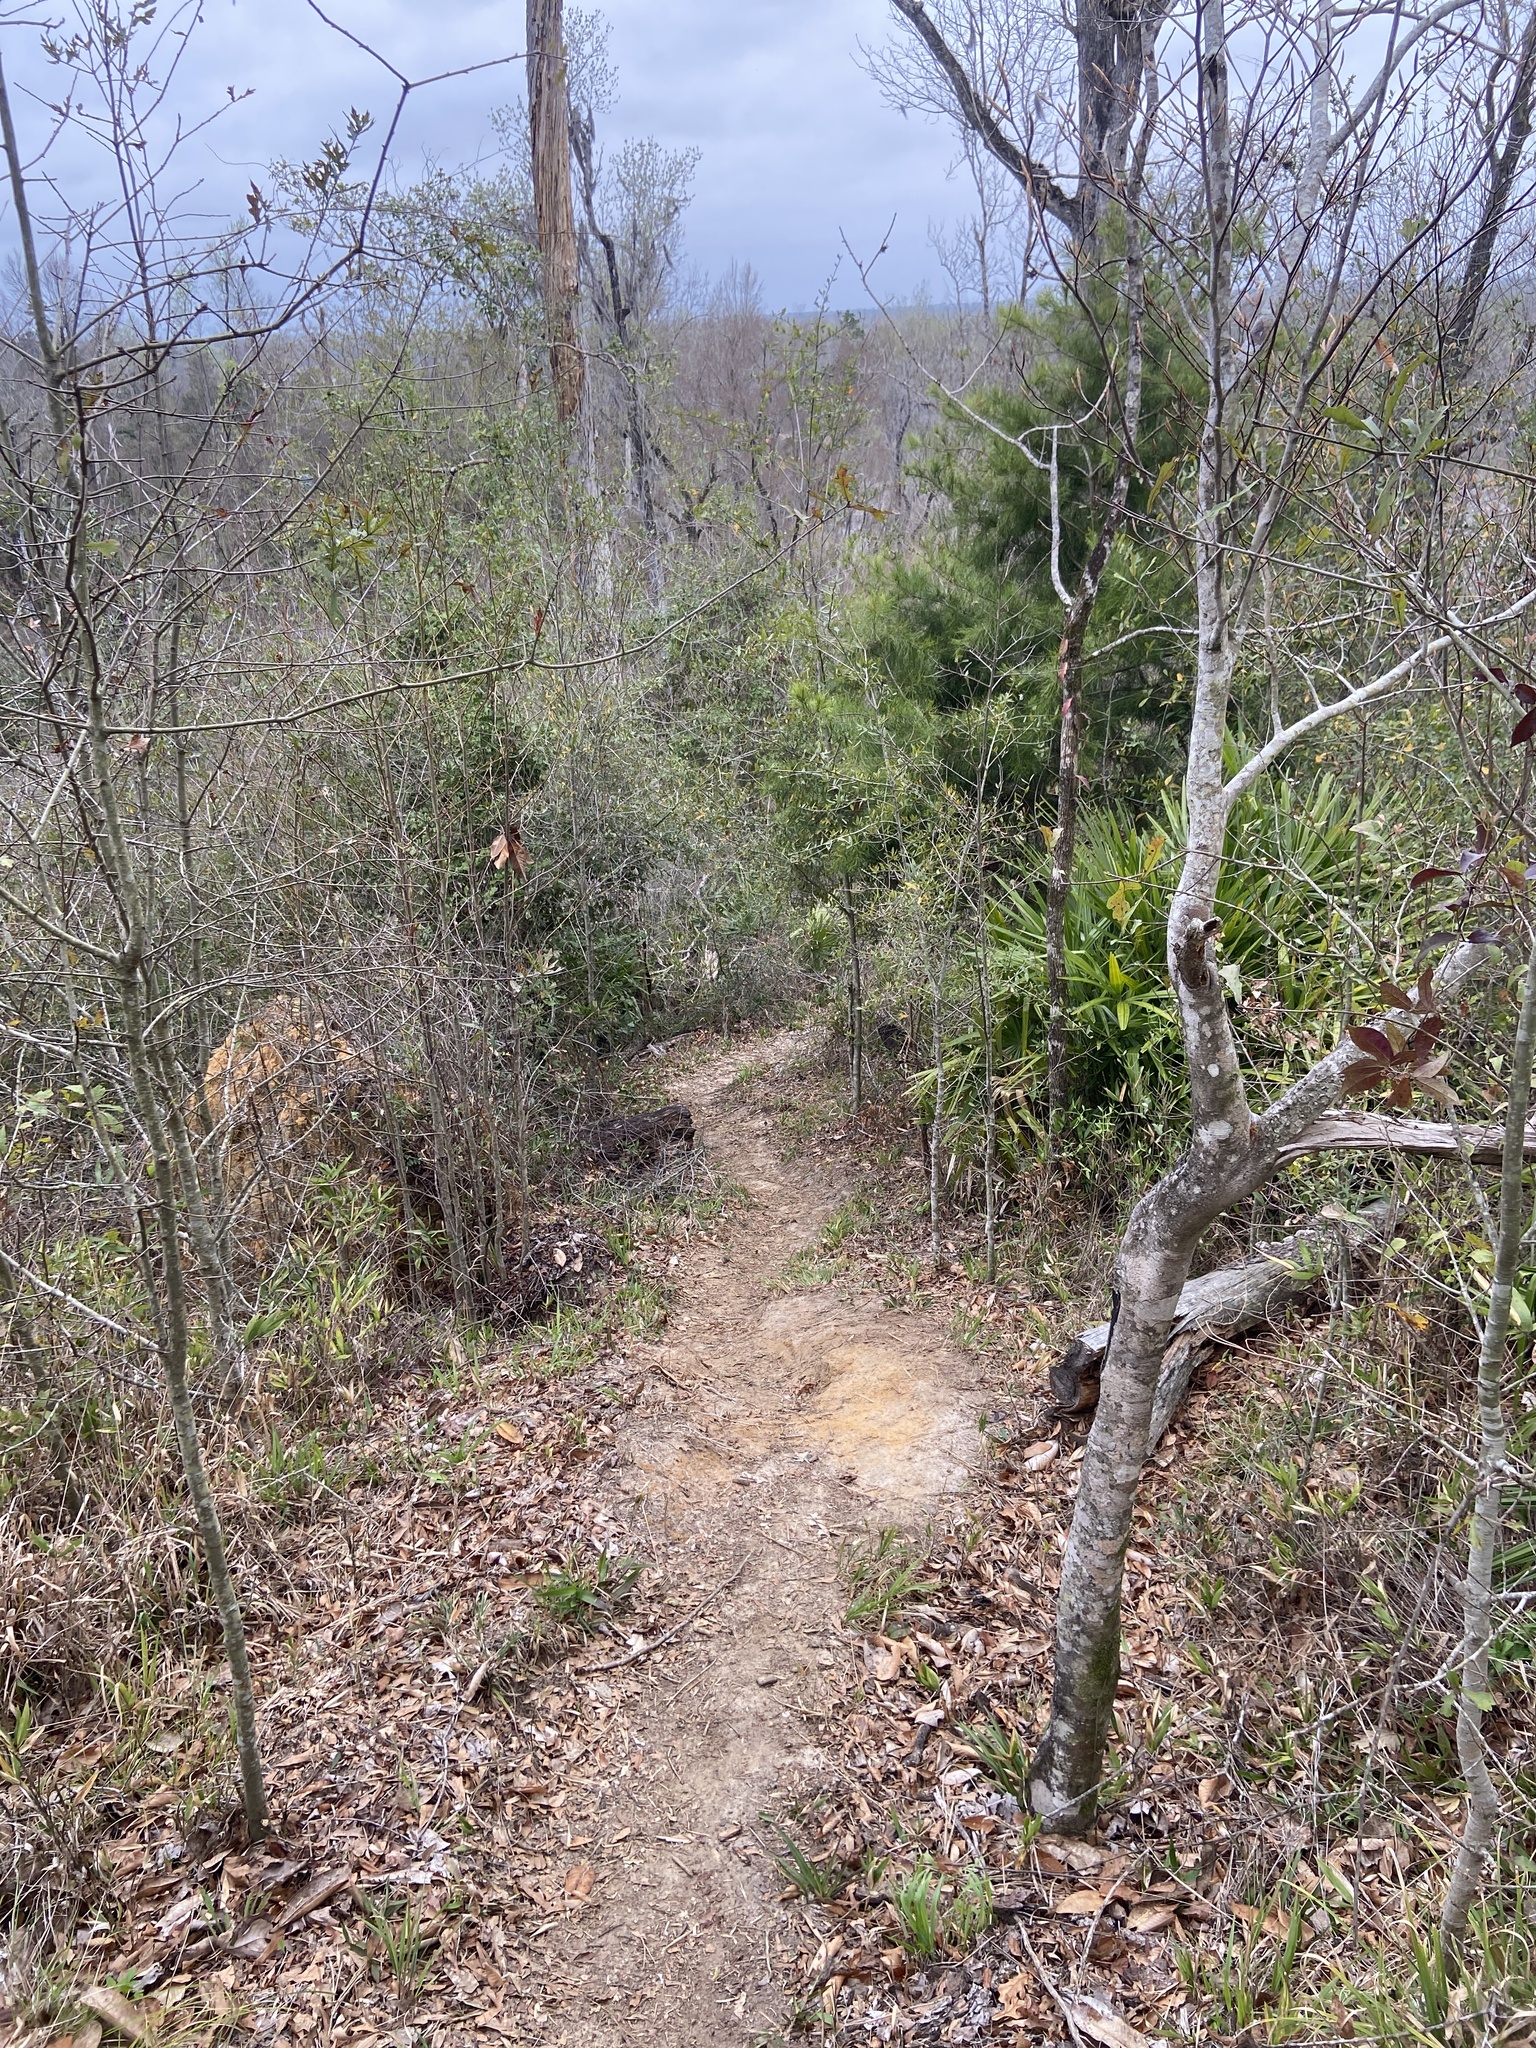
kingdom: Plantae
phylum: Tracheophyta
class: Liliopsida
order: Poales
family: Cyperaceae
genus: Carex
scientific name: Carex baltzellii
